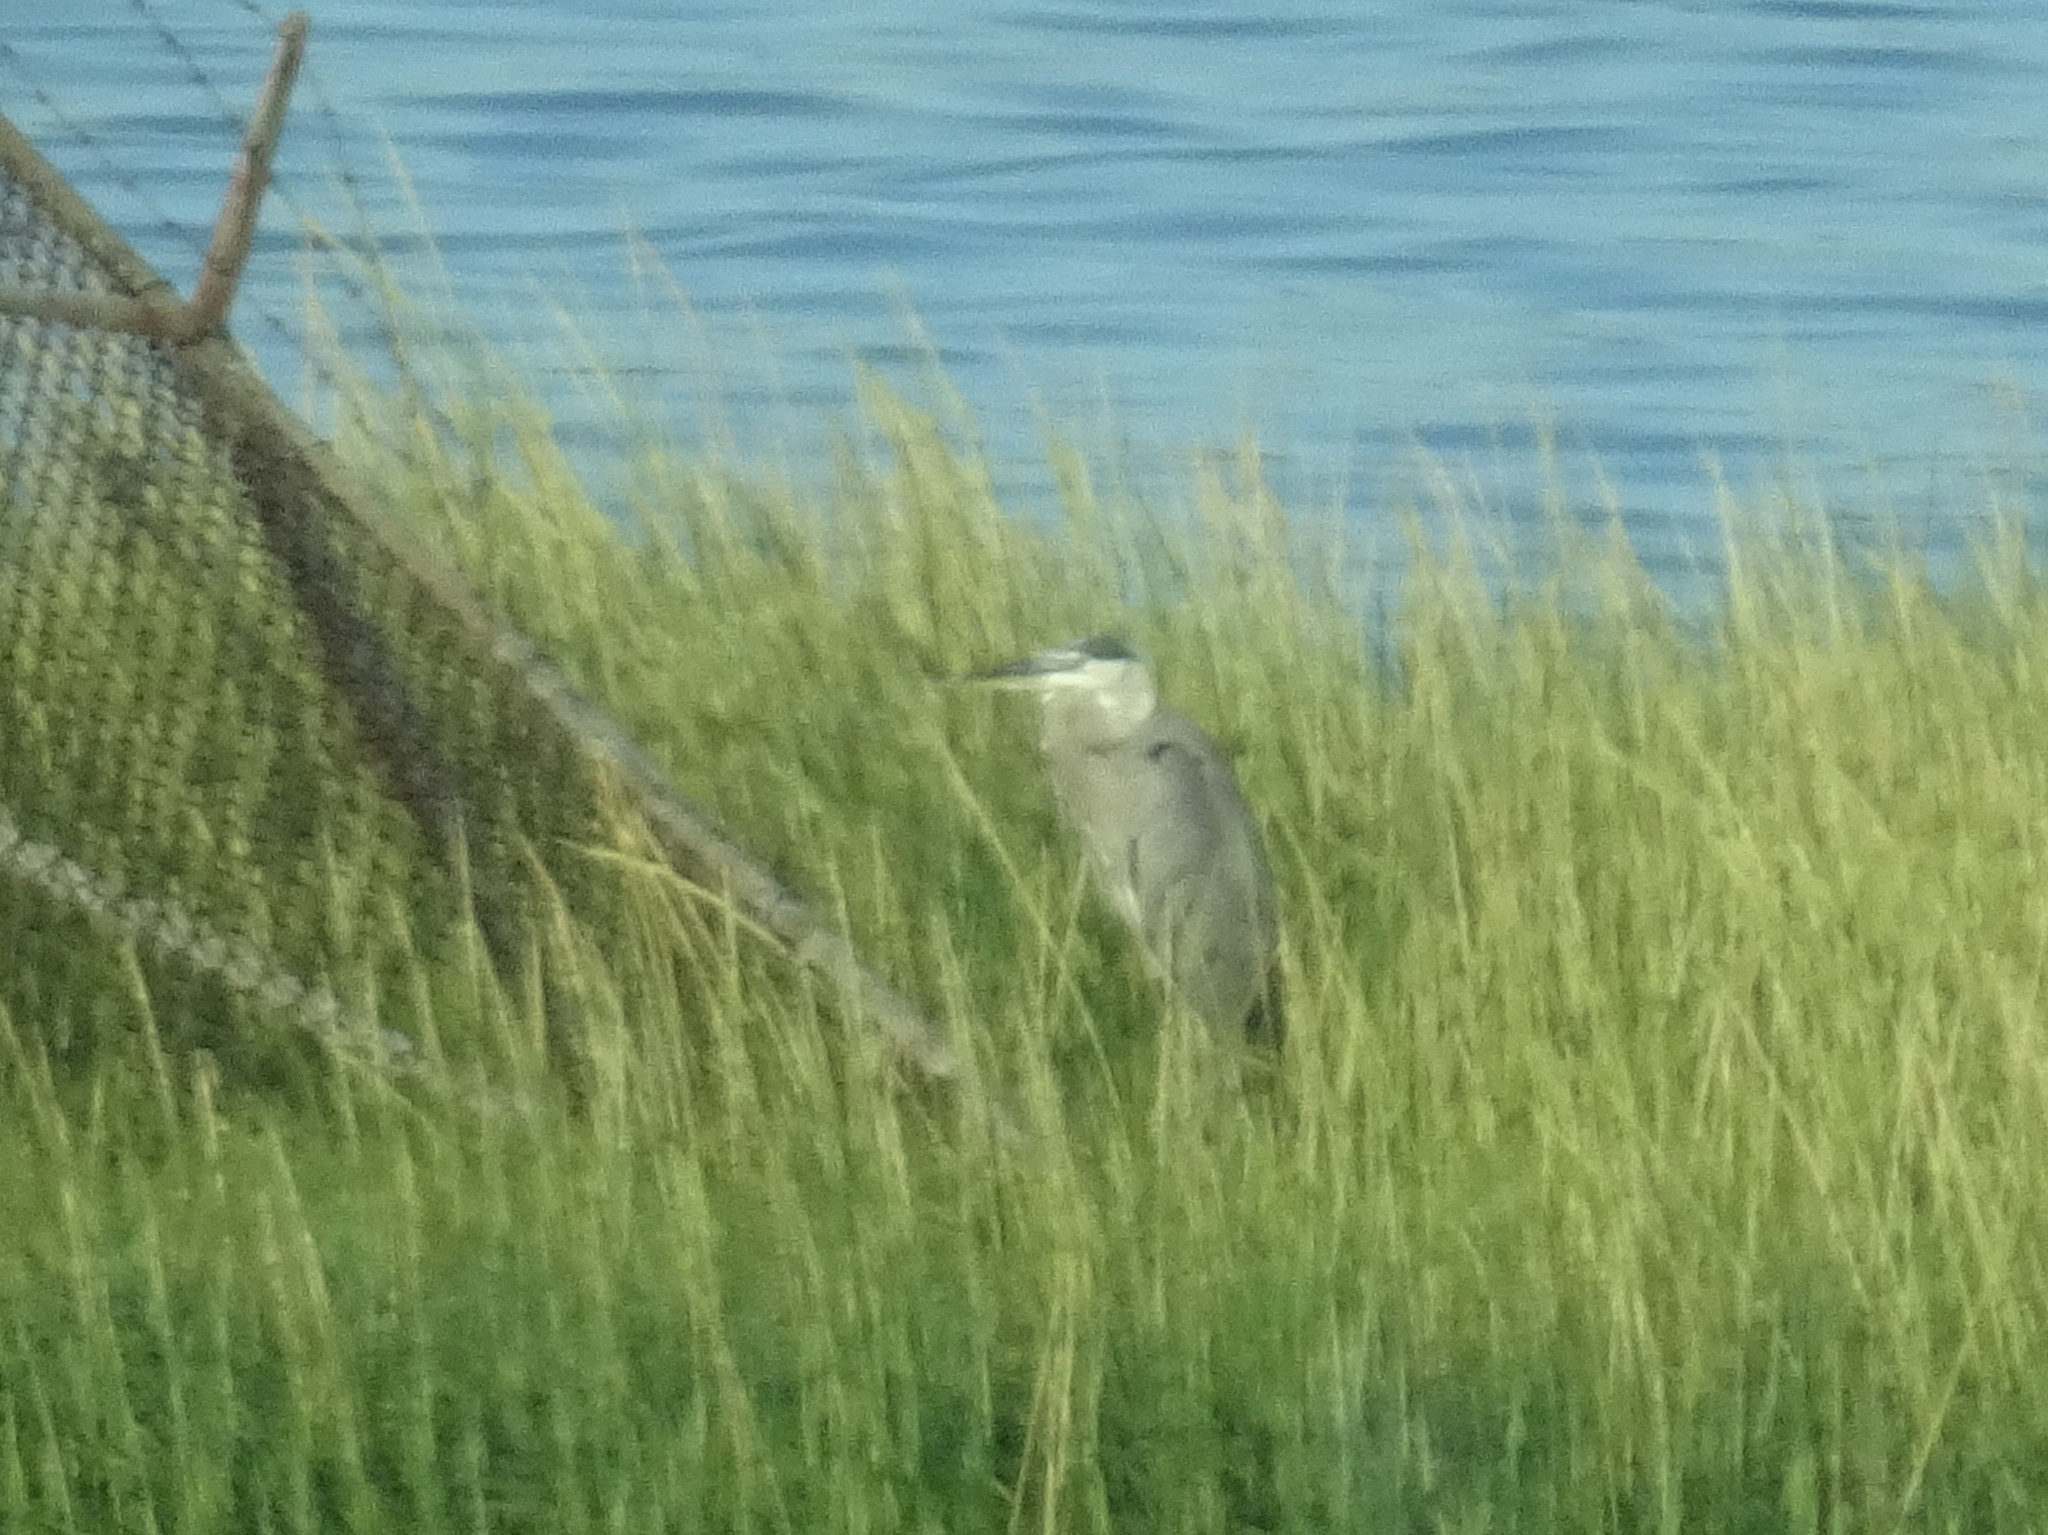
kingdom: Animalia
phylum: Chordata
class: Aves
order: Pelecaniformes
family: Ardeidae
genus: Ardea
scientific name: Ardea herodias
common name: Great blue heron
